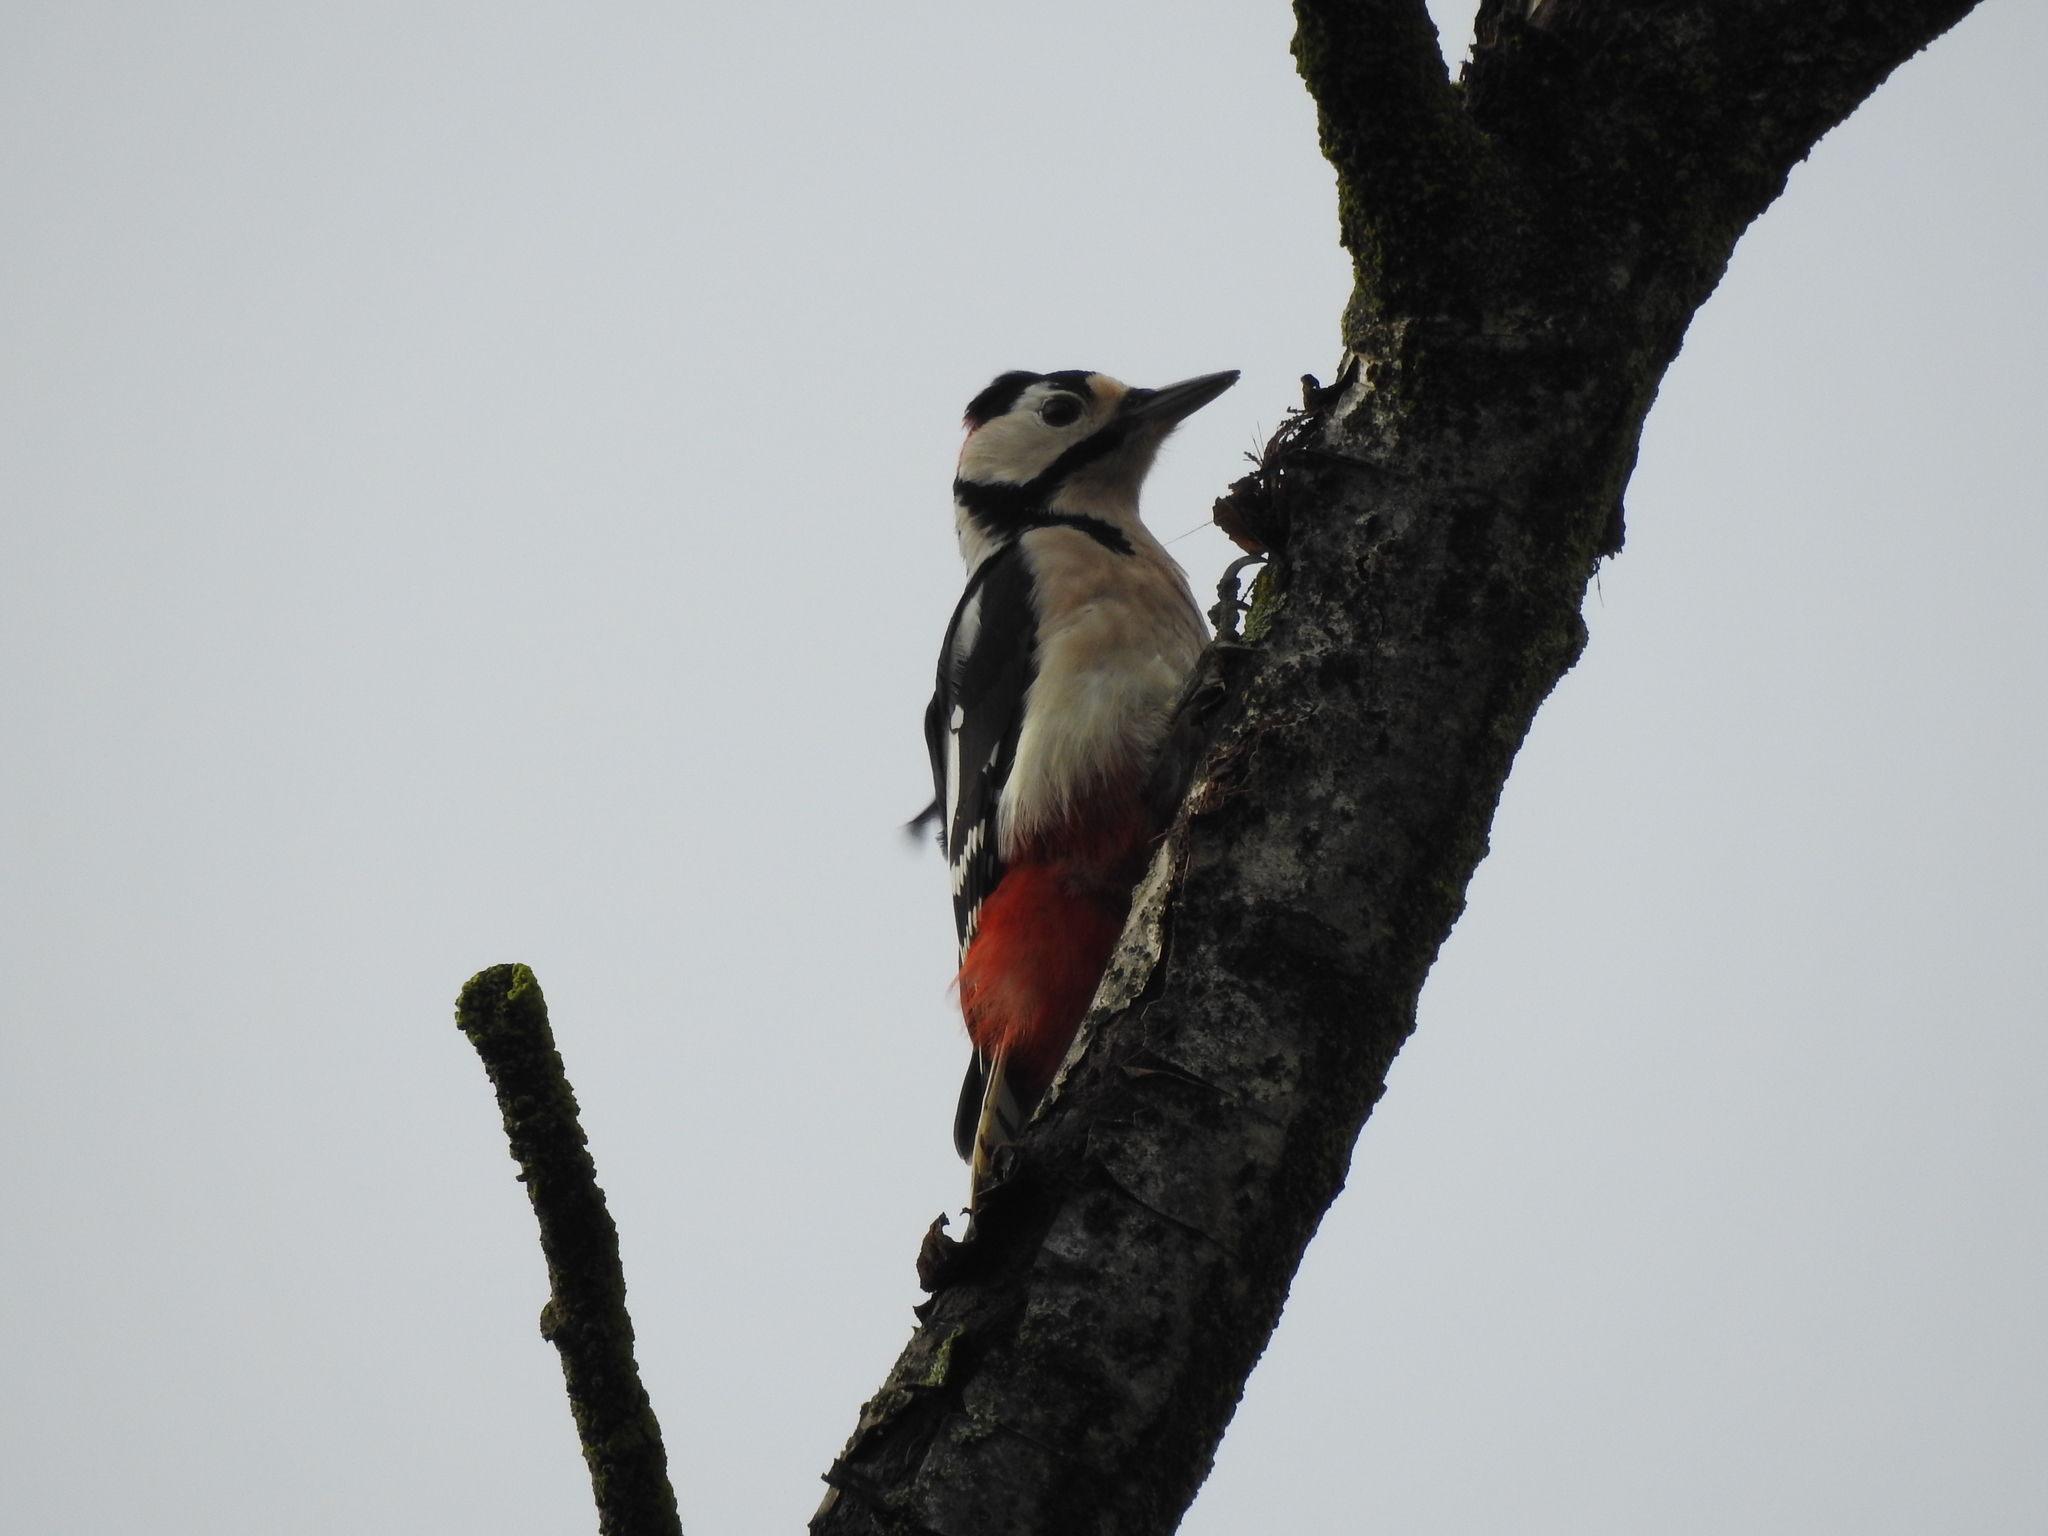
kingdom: Animalia
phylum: Chordata
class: Aves
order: Piciformes
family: Picidae
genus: Dendrocopos
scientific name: Dendrocopos major
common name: Great spotted woodpecker
